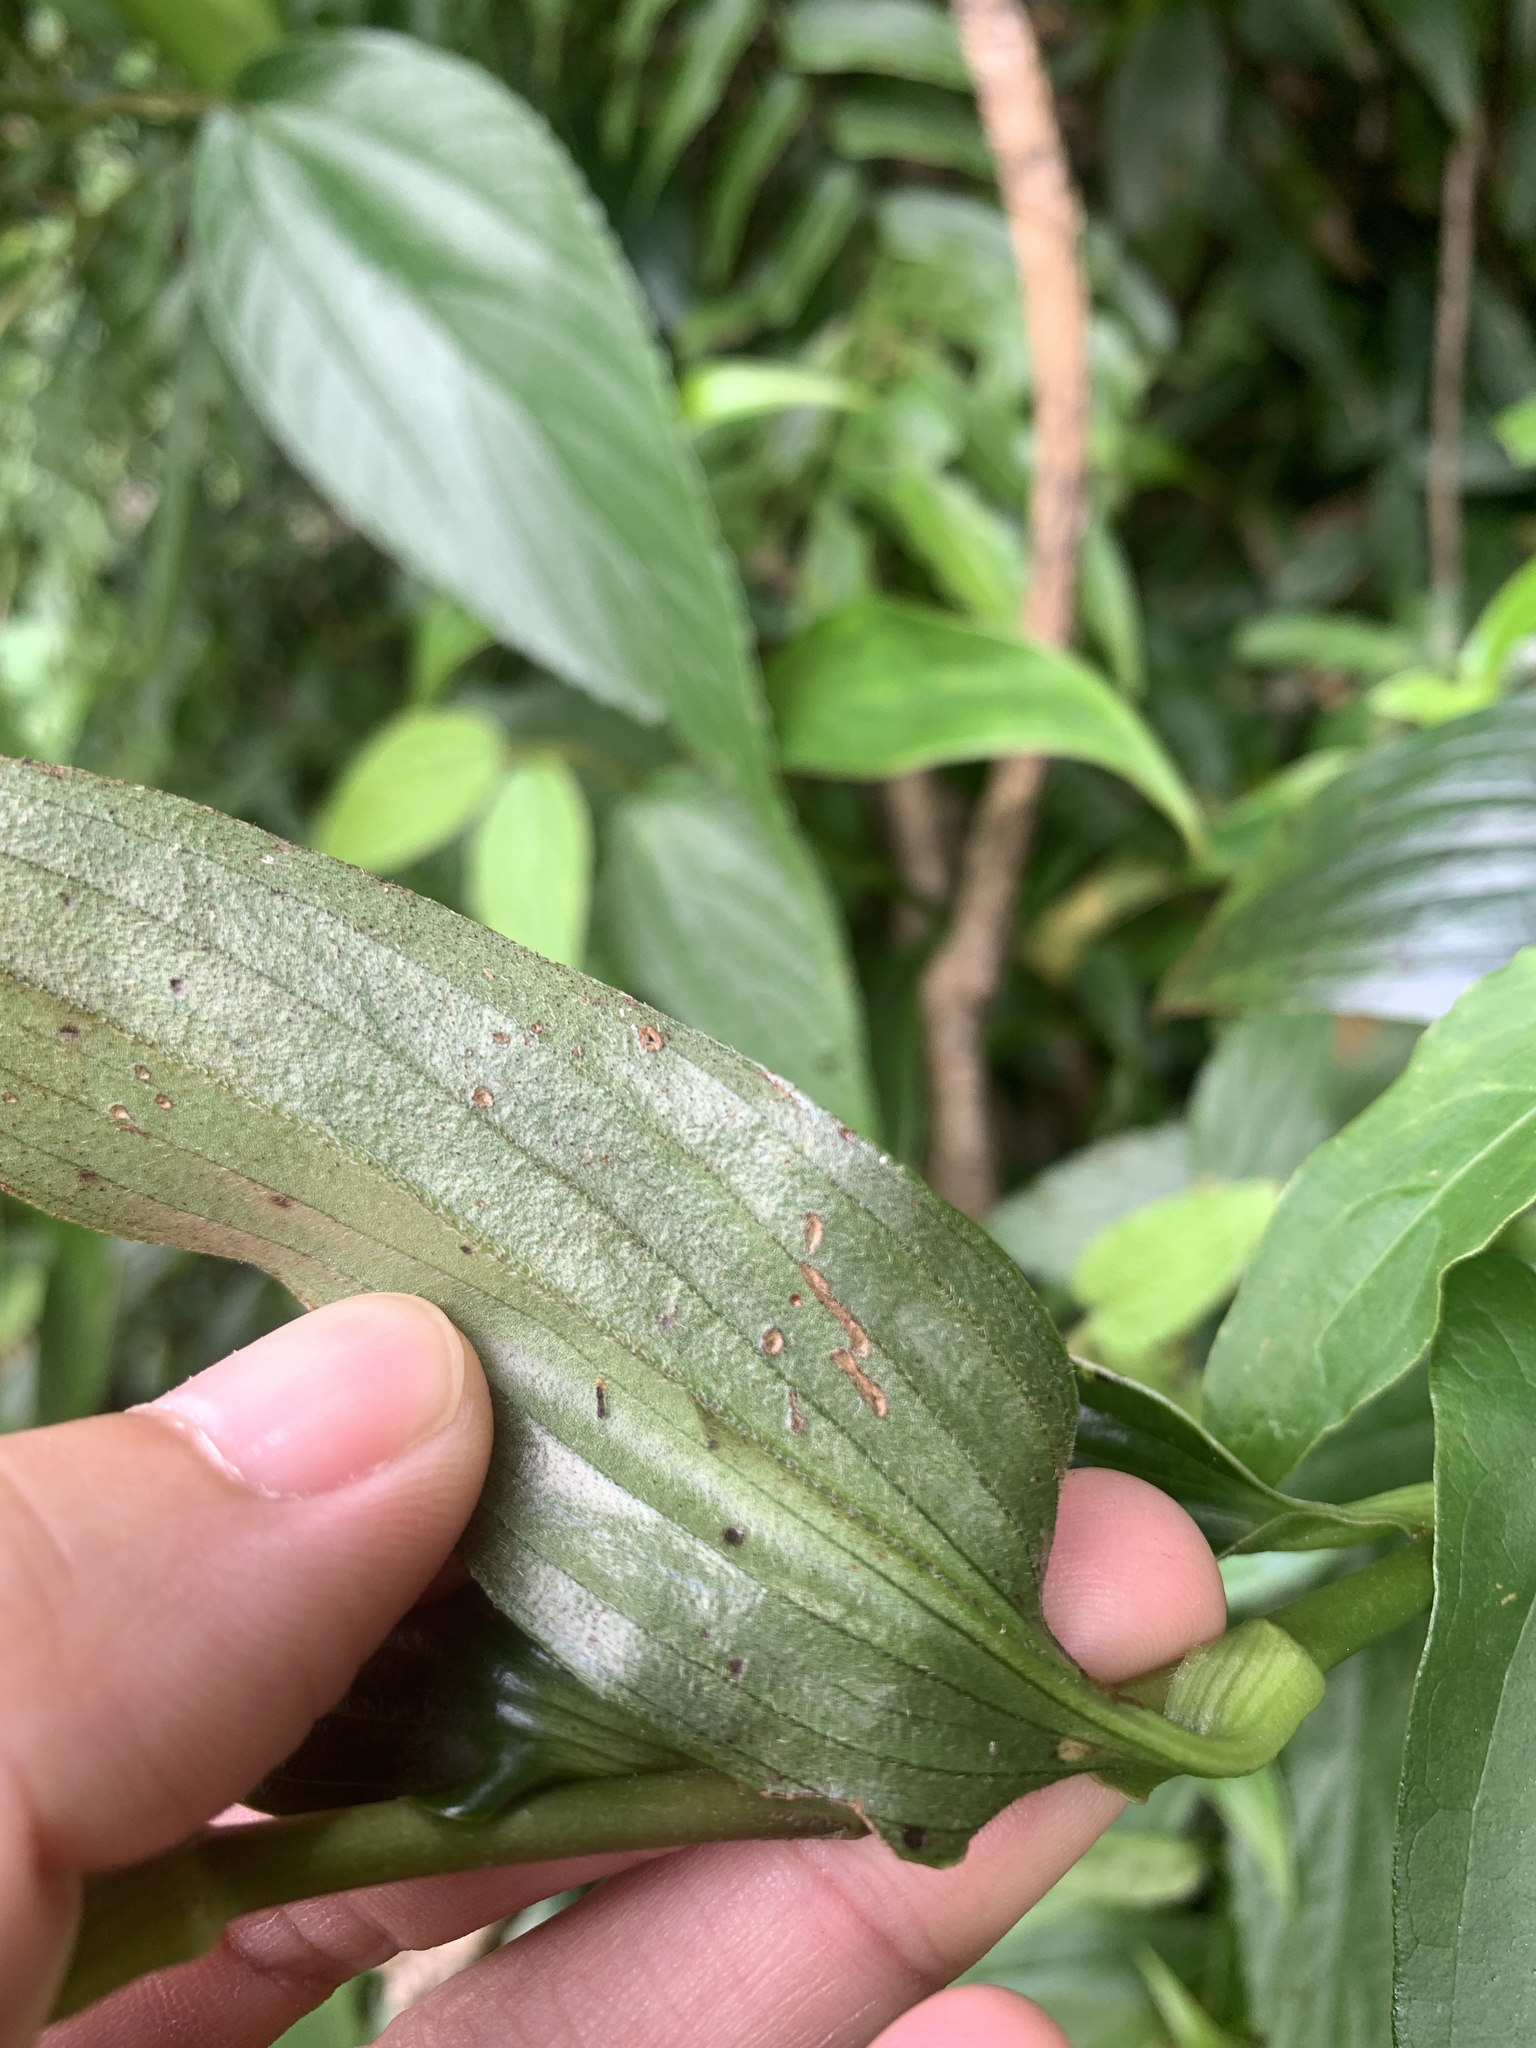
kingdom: Plantae
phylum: Tracheophyta
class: Liliopsida
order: Liliales
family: Liliaceae
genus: Tricyrtis
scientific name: Tricyrtis formosana
